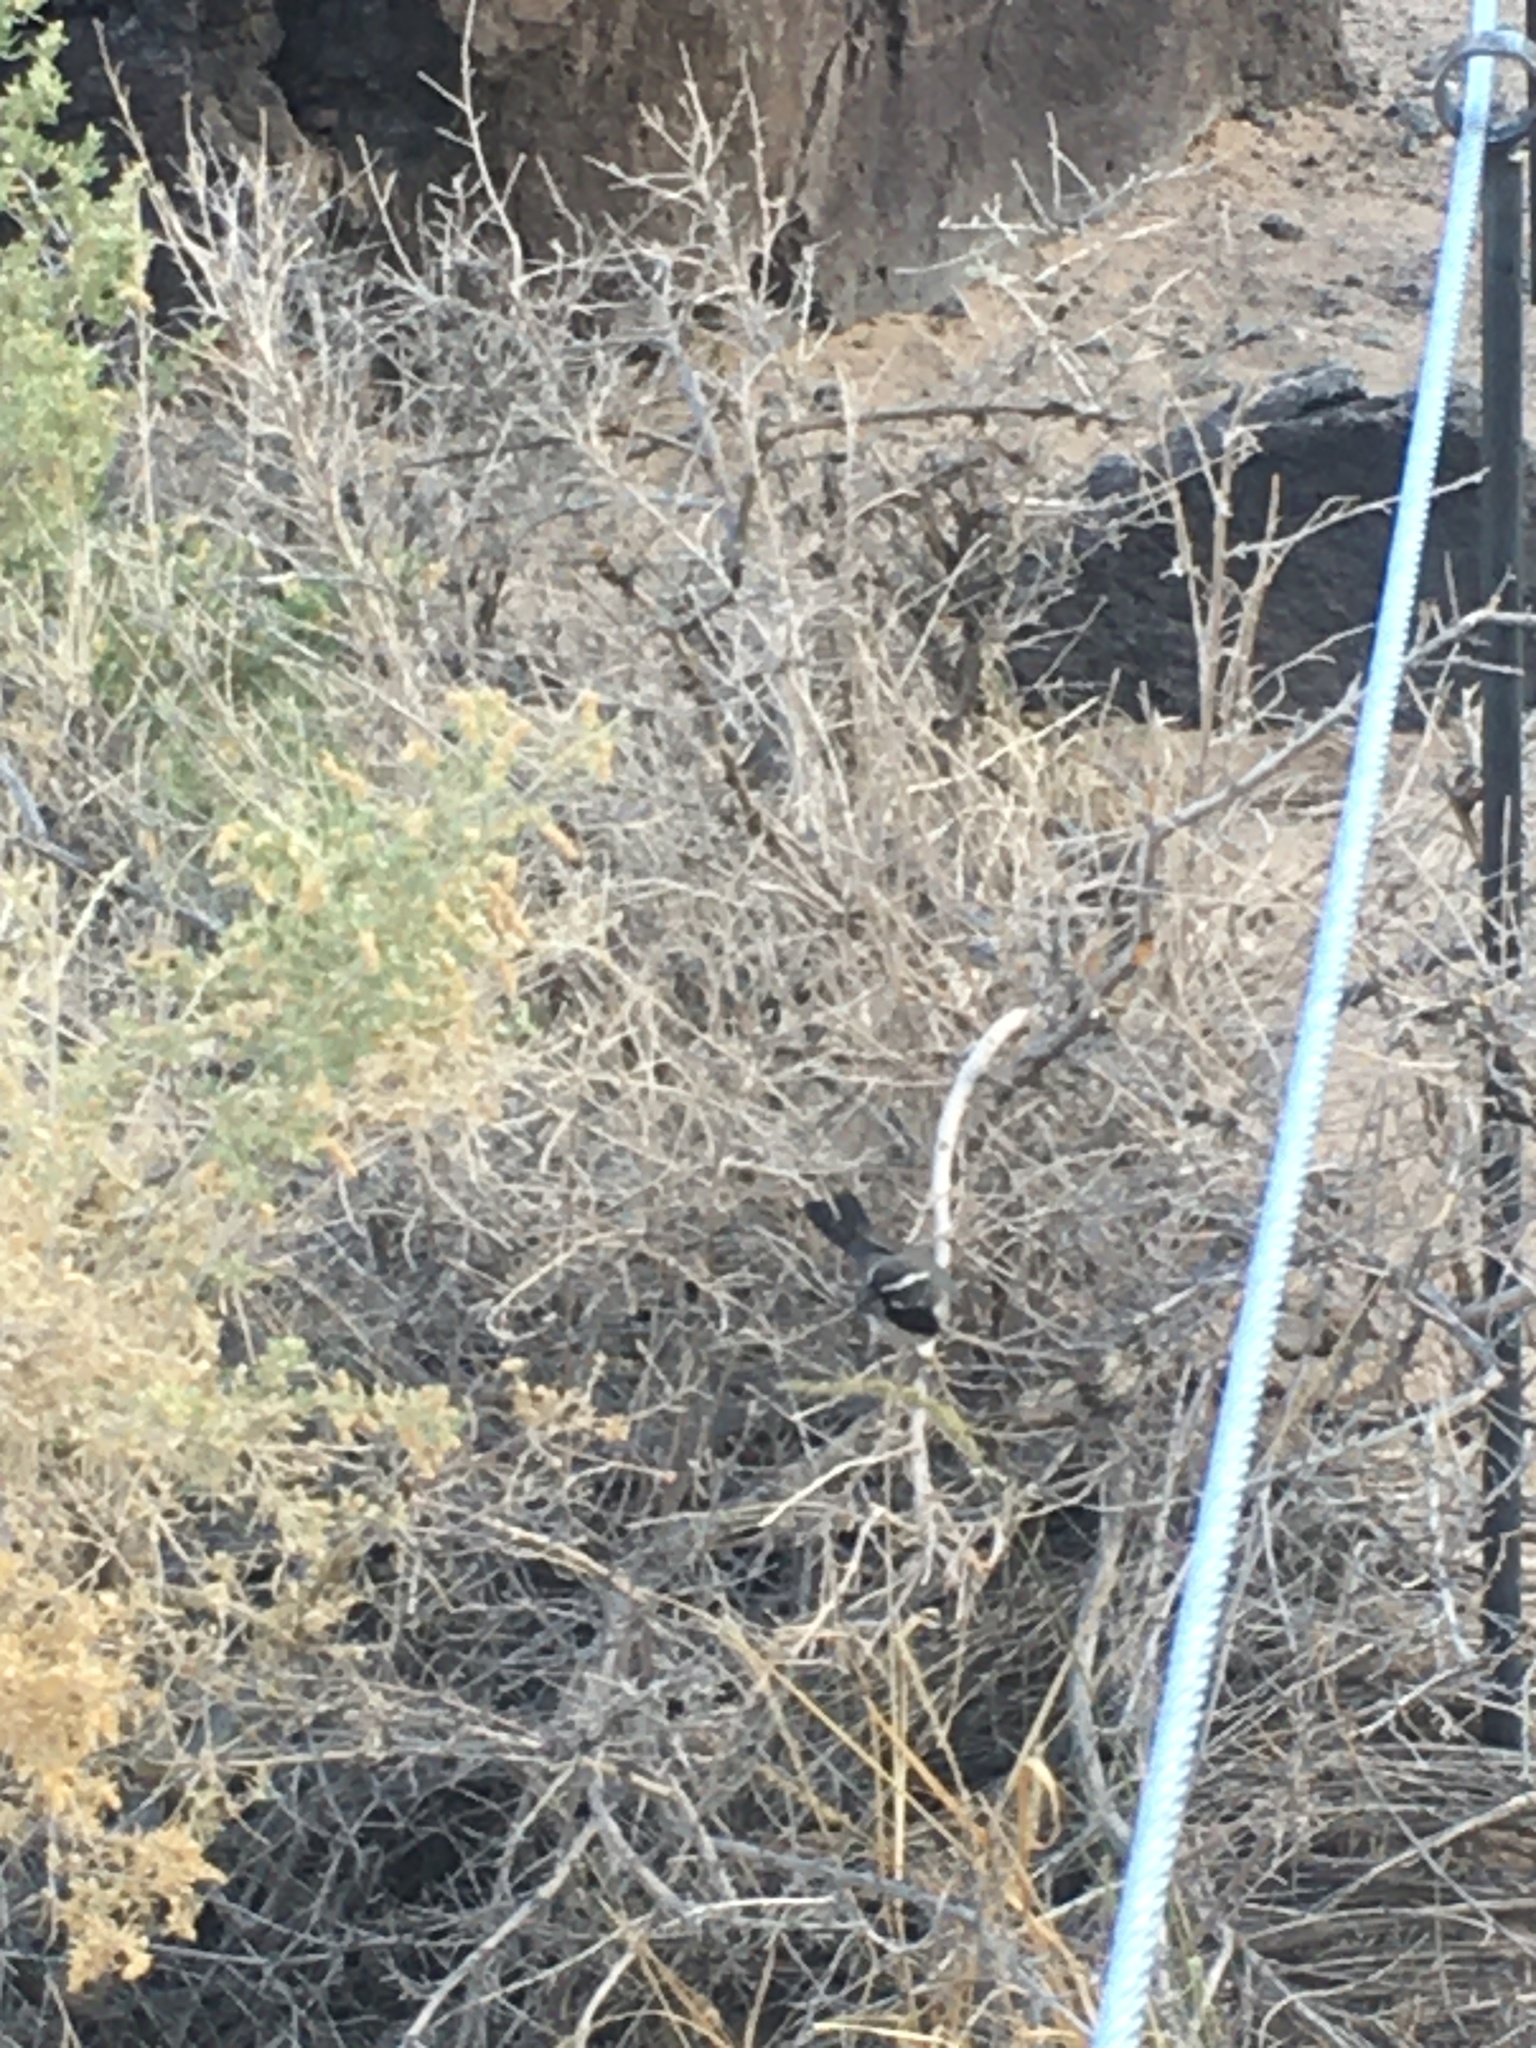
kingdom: Animalia
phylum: Chordata
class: Aves
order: Passeriformes
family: Passerellidae
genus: Amphispiza
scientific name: Amphispiza bilineata
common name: Black-throated sparrow
